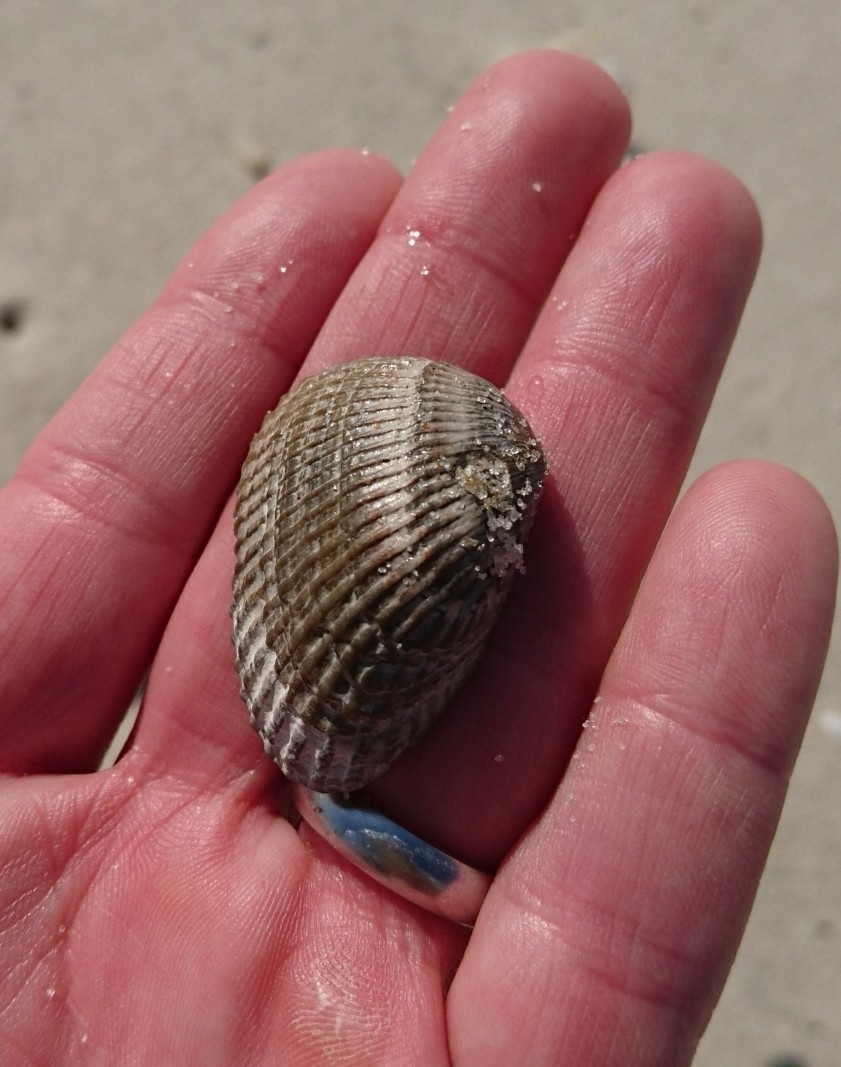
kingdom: Animalia
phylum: Mollusca
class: Bivalvia
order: Arcida
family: Arcidae
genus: Anadara
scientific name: Anadara transversa
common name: Transverse ark
